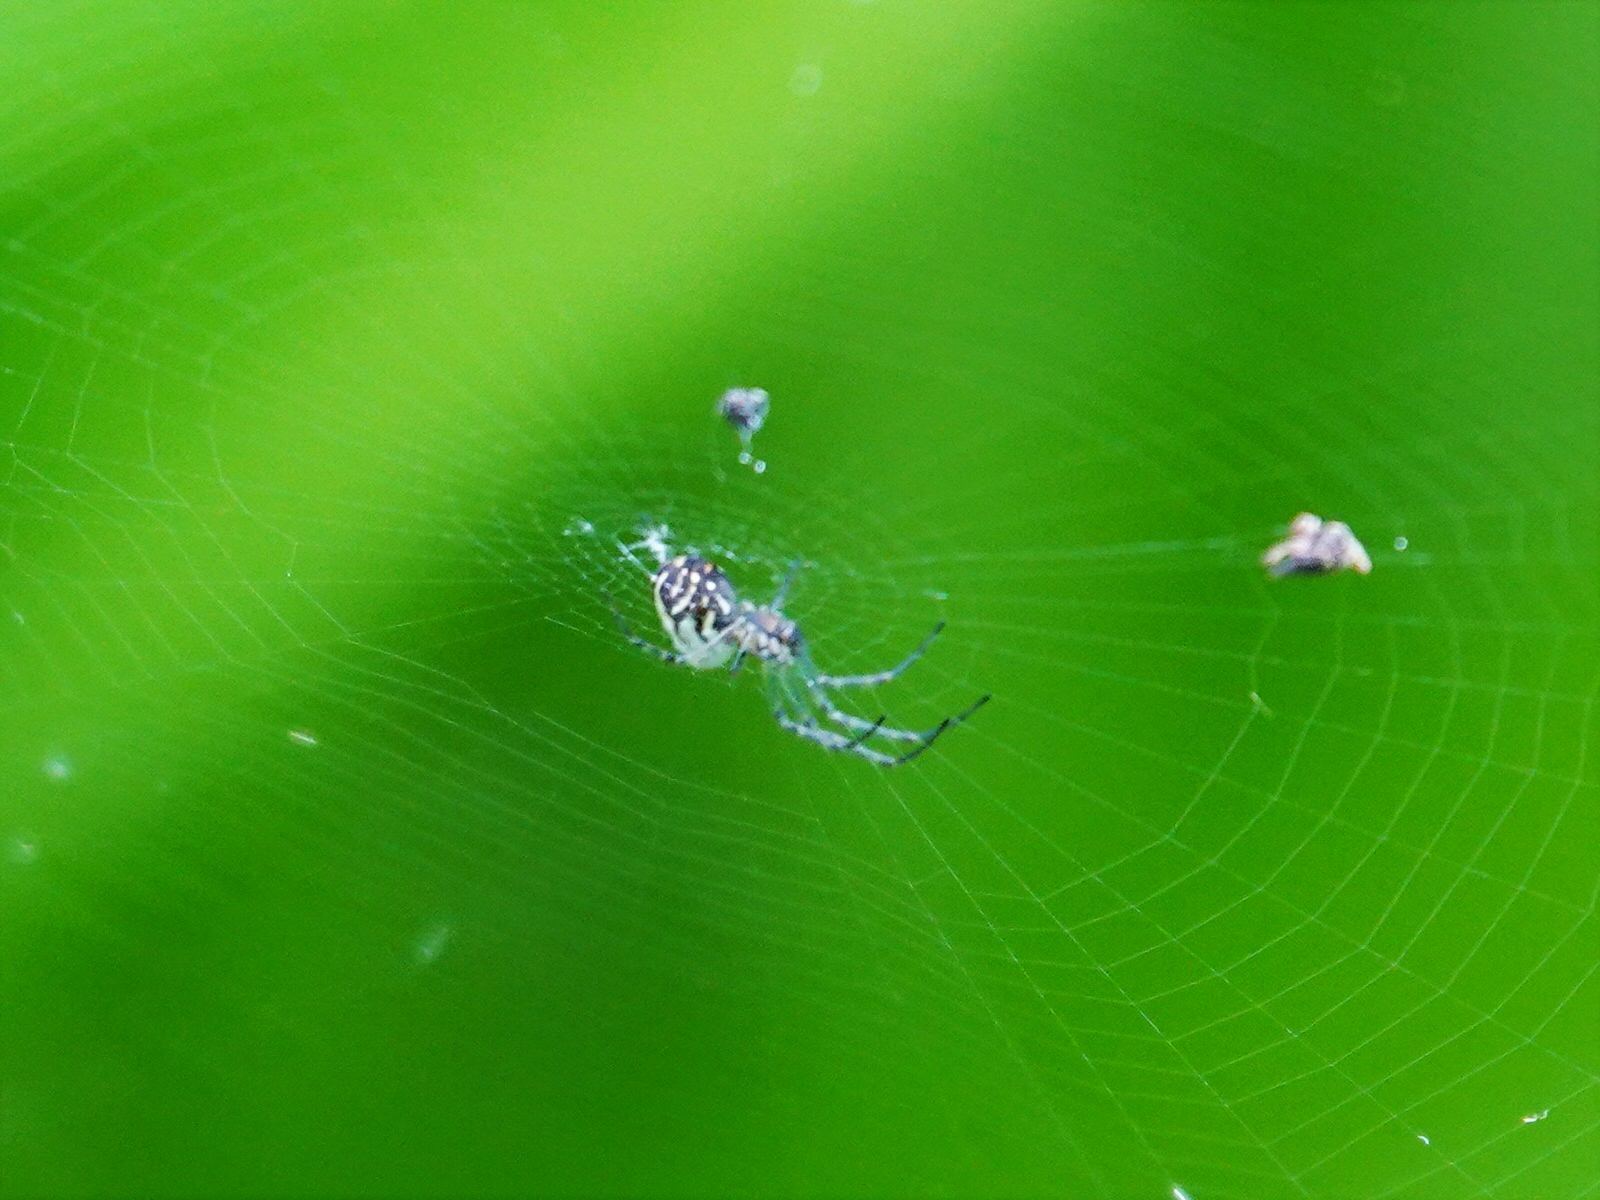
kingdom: Animalia
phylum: Arthropoda
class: Arachnida
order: Araneae
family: Tetragnathidae
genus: Leucauge
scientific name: Leucauge dromedaria
